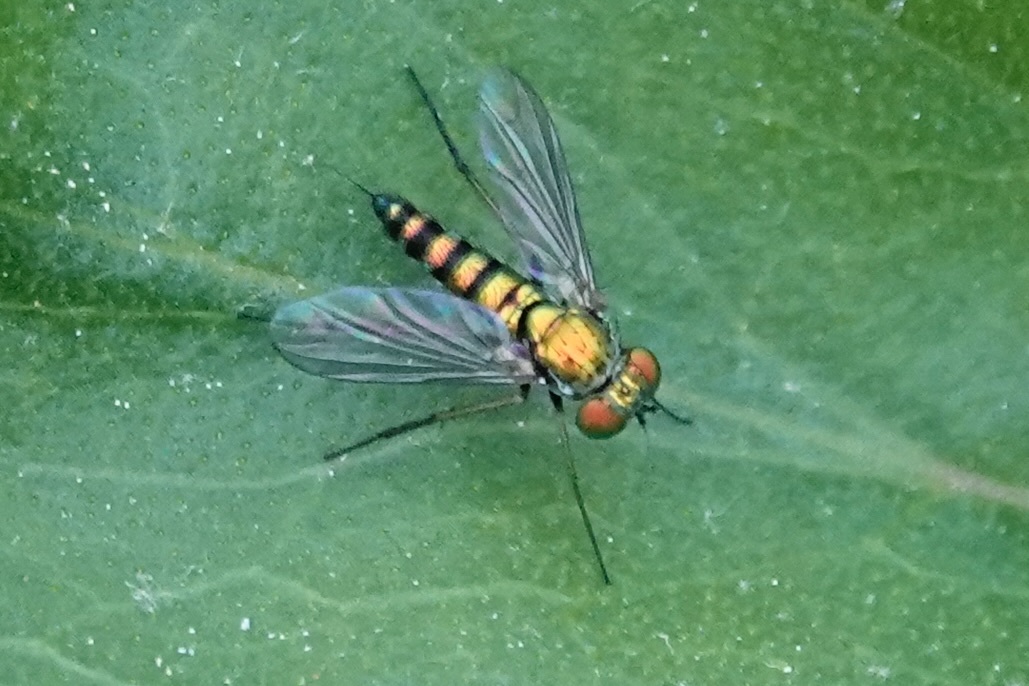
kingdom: Animalia
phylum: Arthropoda
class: Insecta
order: Diptera
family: Dolichopodidae
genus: Condylostylus
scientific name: Condylostylus caudatus
